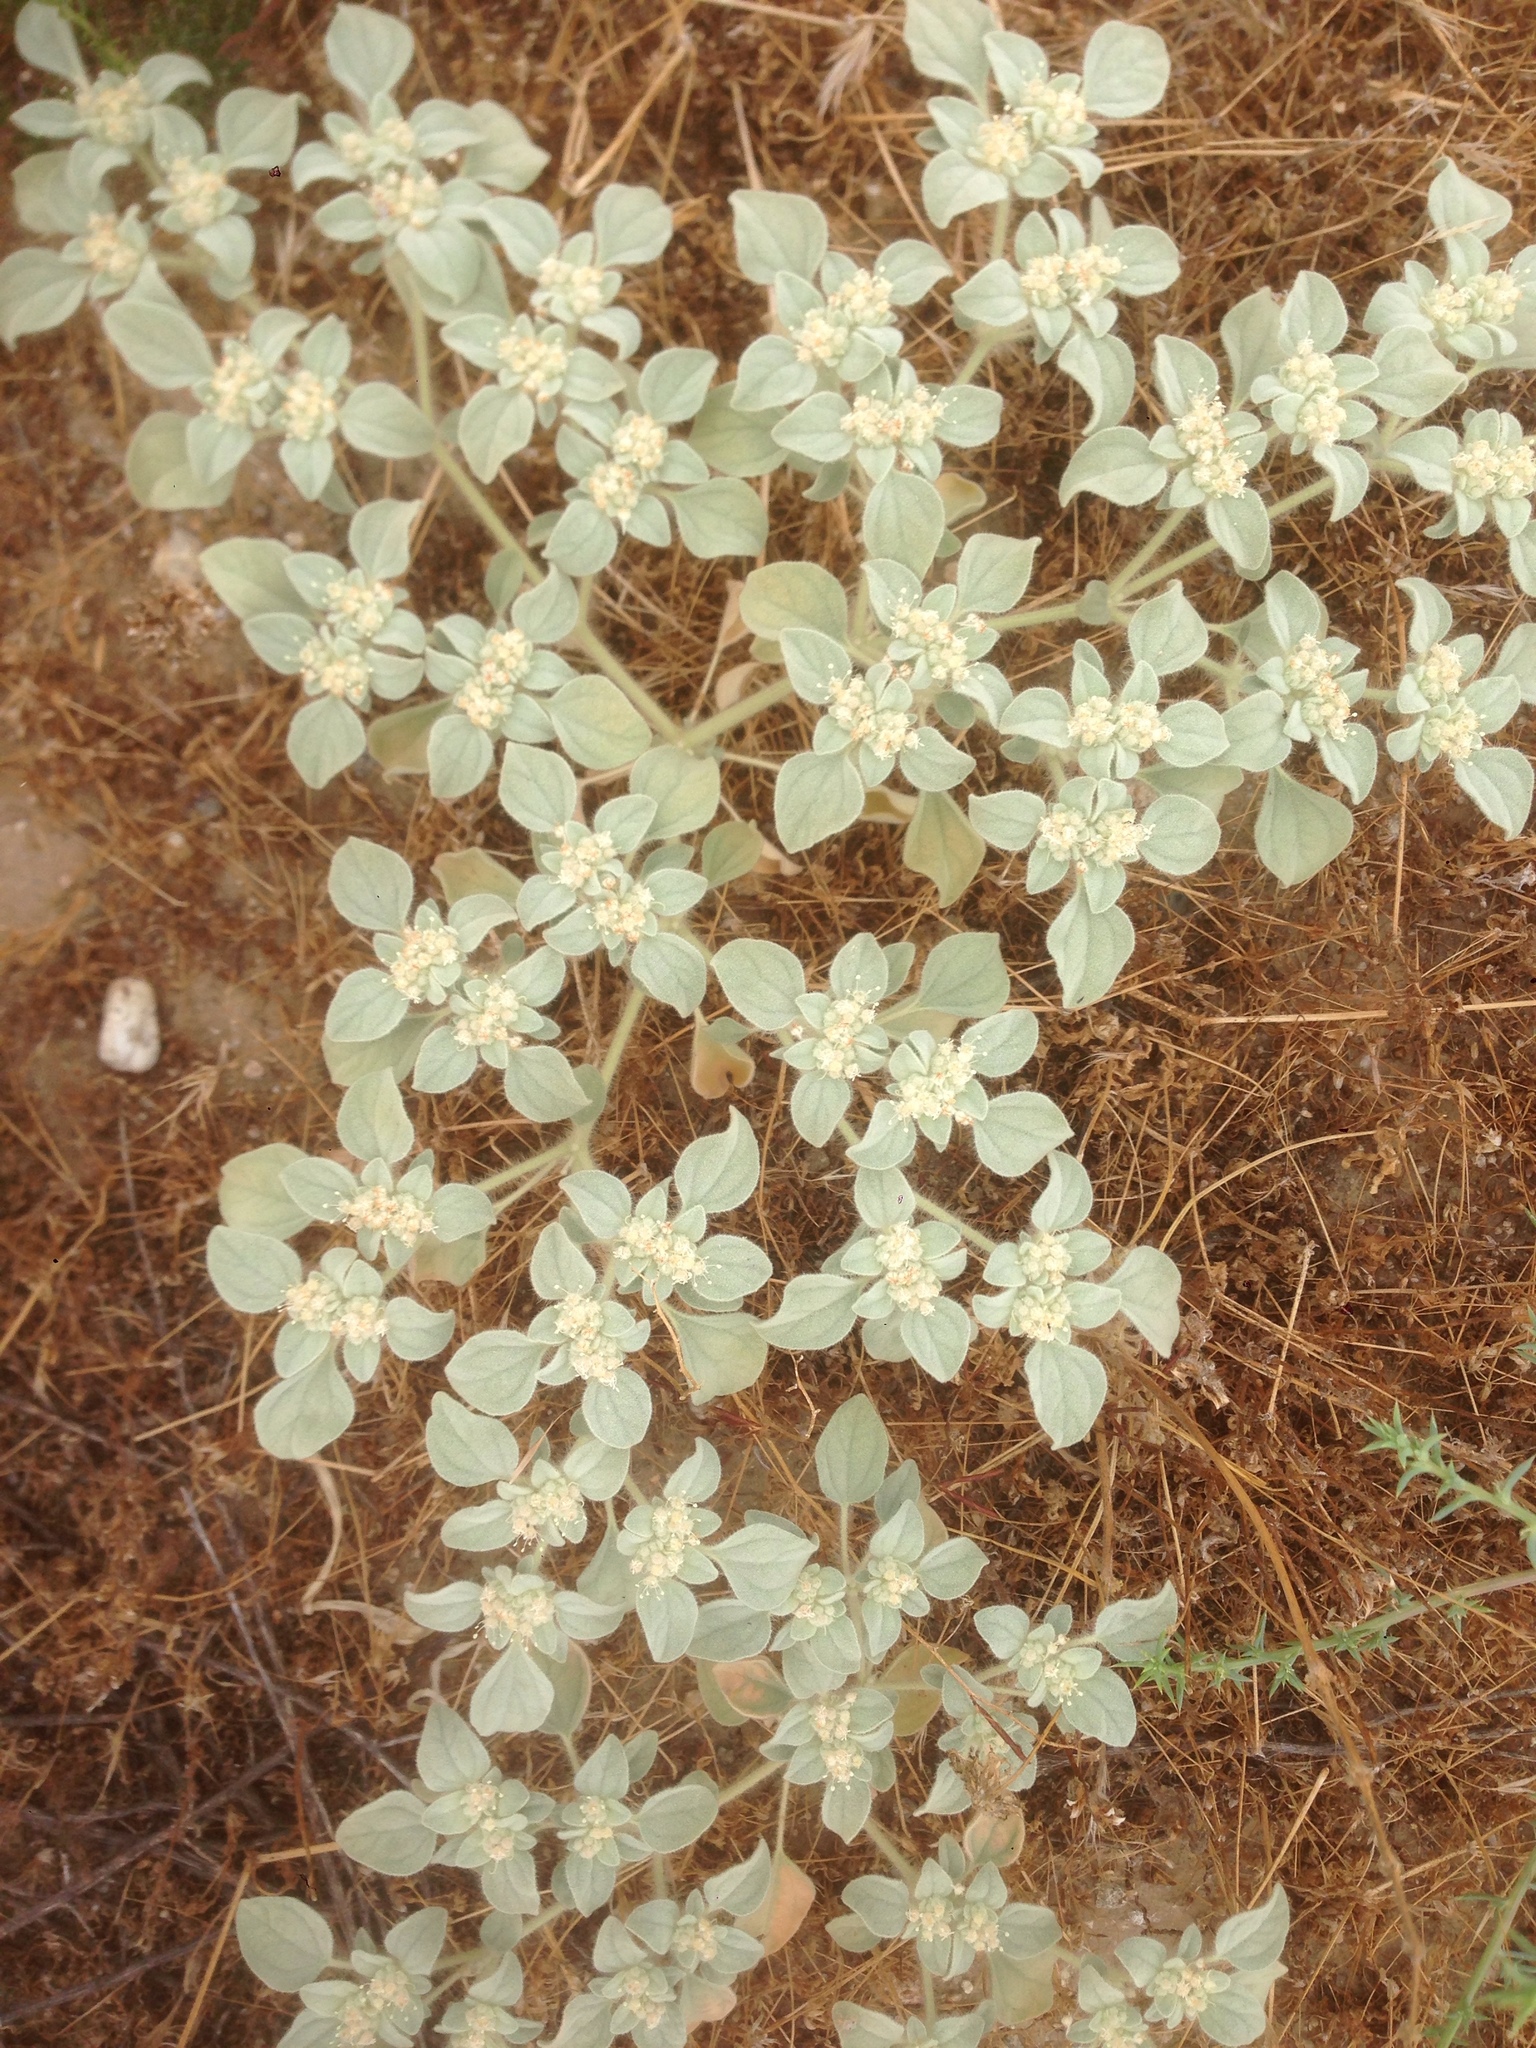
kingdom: Plantae
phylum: Tracheophyta
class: Magnoliopsida
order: Malpighiales
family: Euphorbiaceae
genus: Croton
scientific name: Croton setiger
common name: Dove weed
